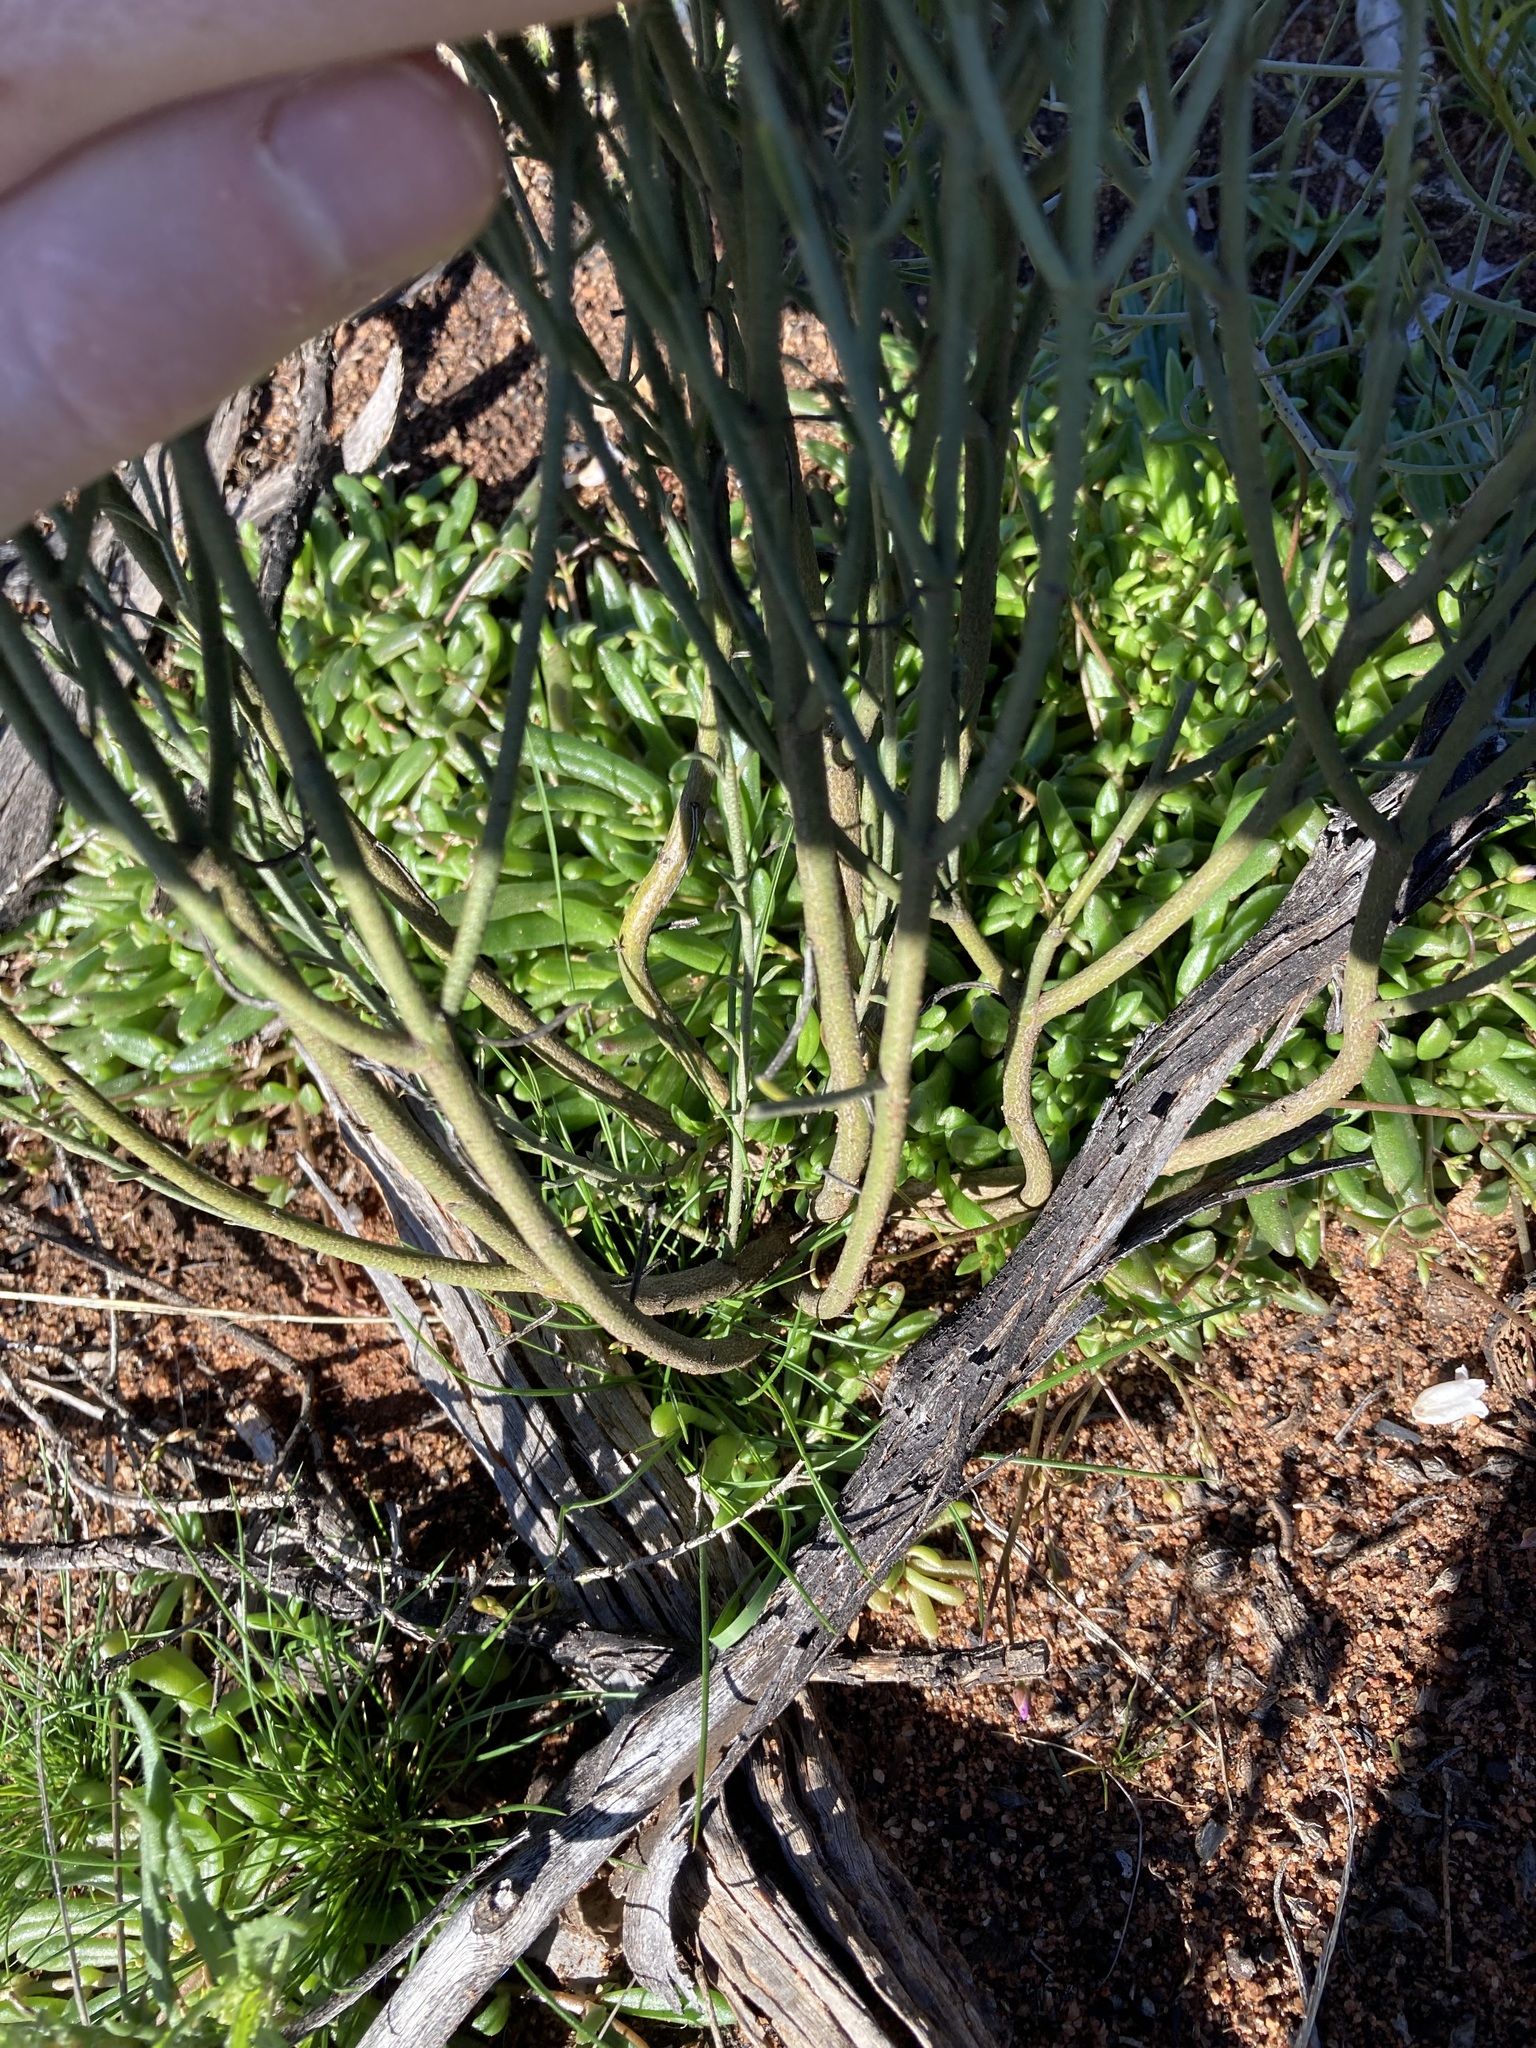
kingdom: Plantae
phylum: Tracheophyta
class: Magnoliopsida
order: Lamiales
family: Scrophulariaceae
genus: Eremophila
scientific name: Eremophila scoparia
